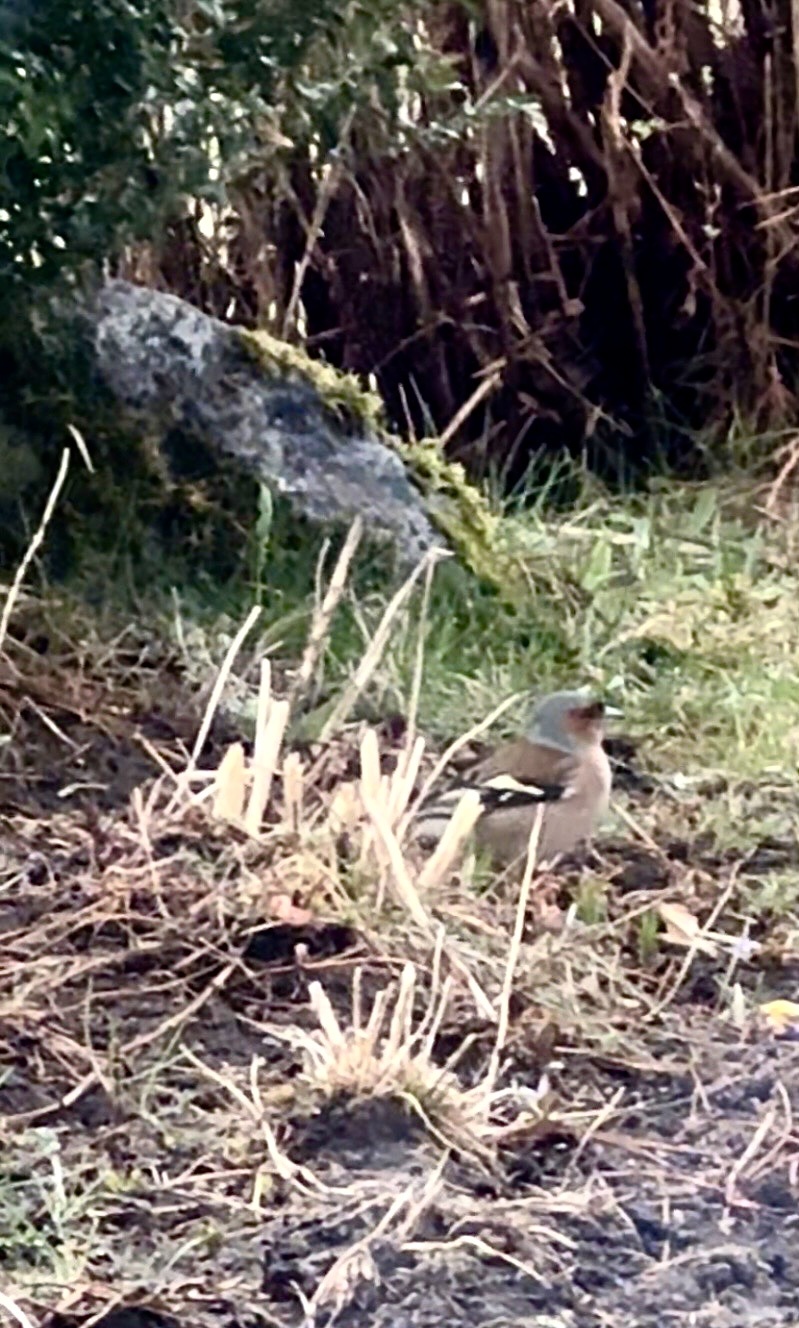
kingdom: Animalia
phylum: Chordata
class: Aves
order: Passeriformes
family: Fringillidae
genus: Fringilla
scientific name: Fringilla coelebs
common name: Common chaffinch
